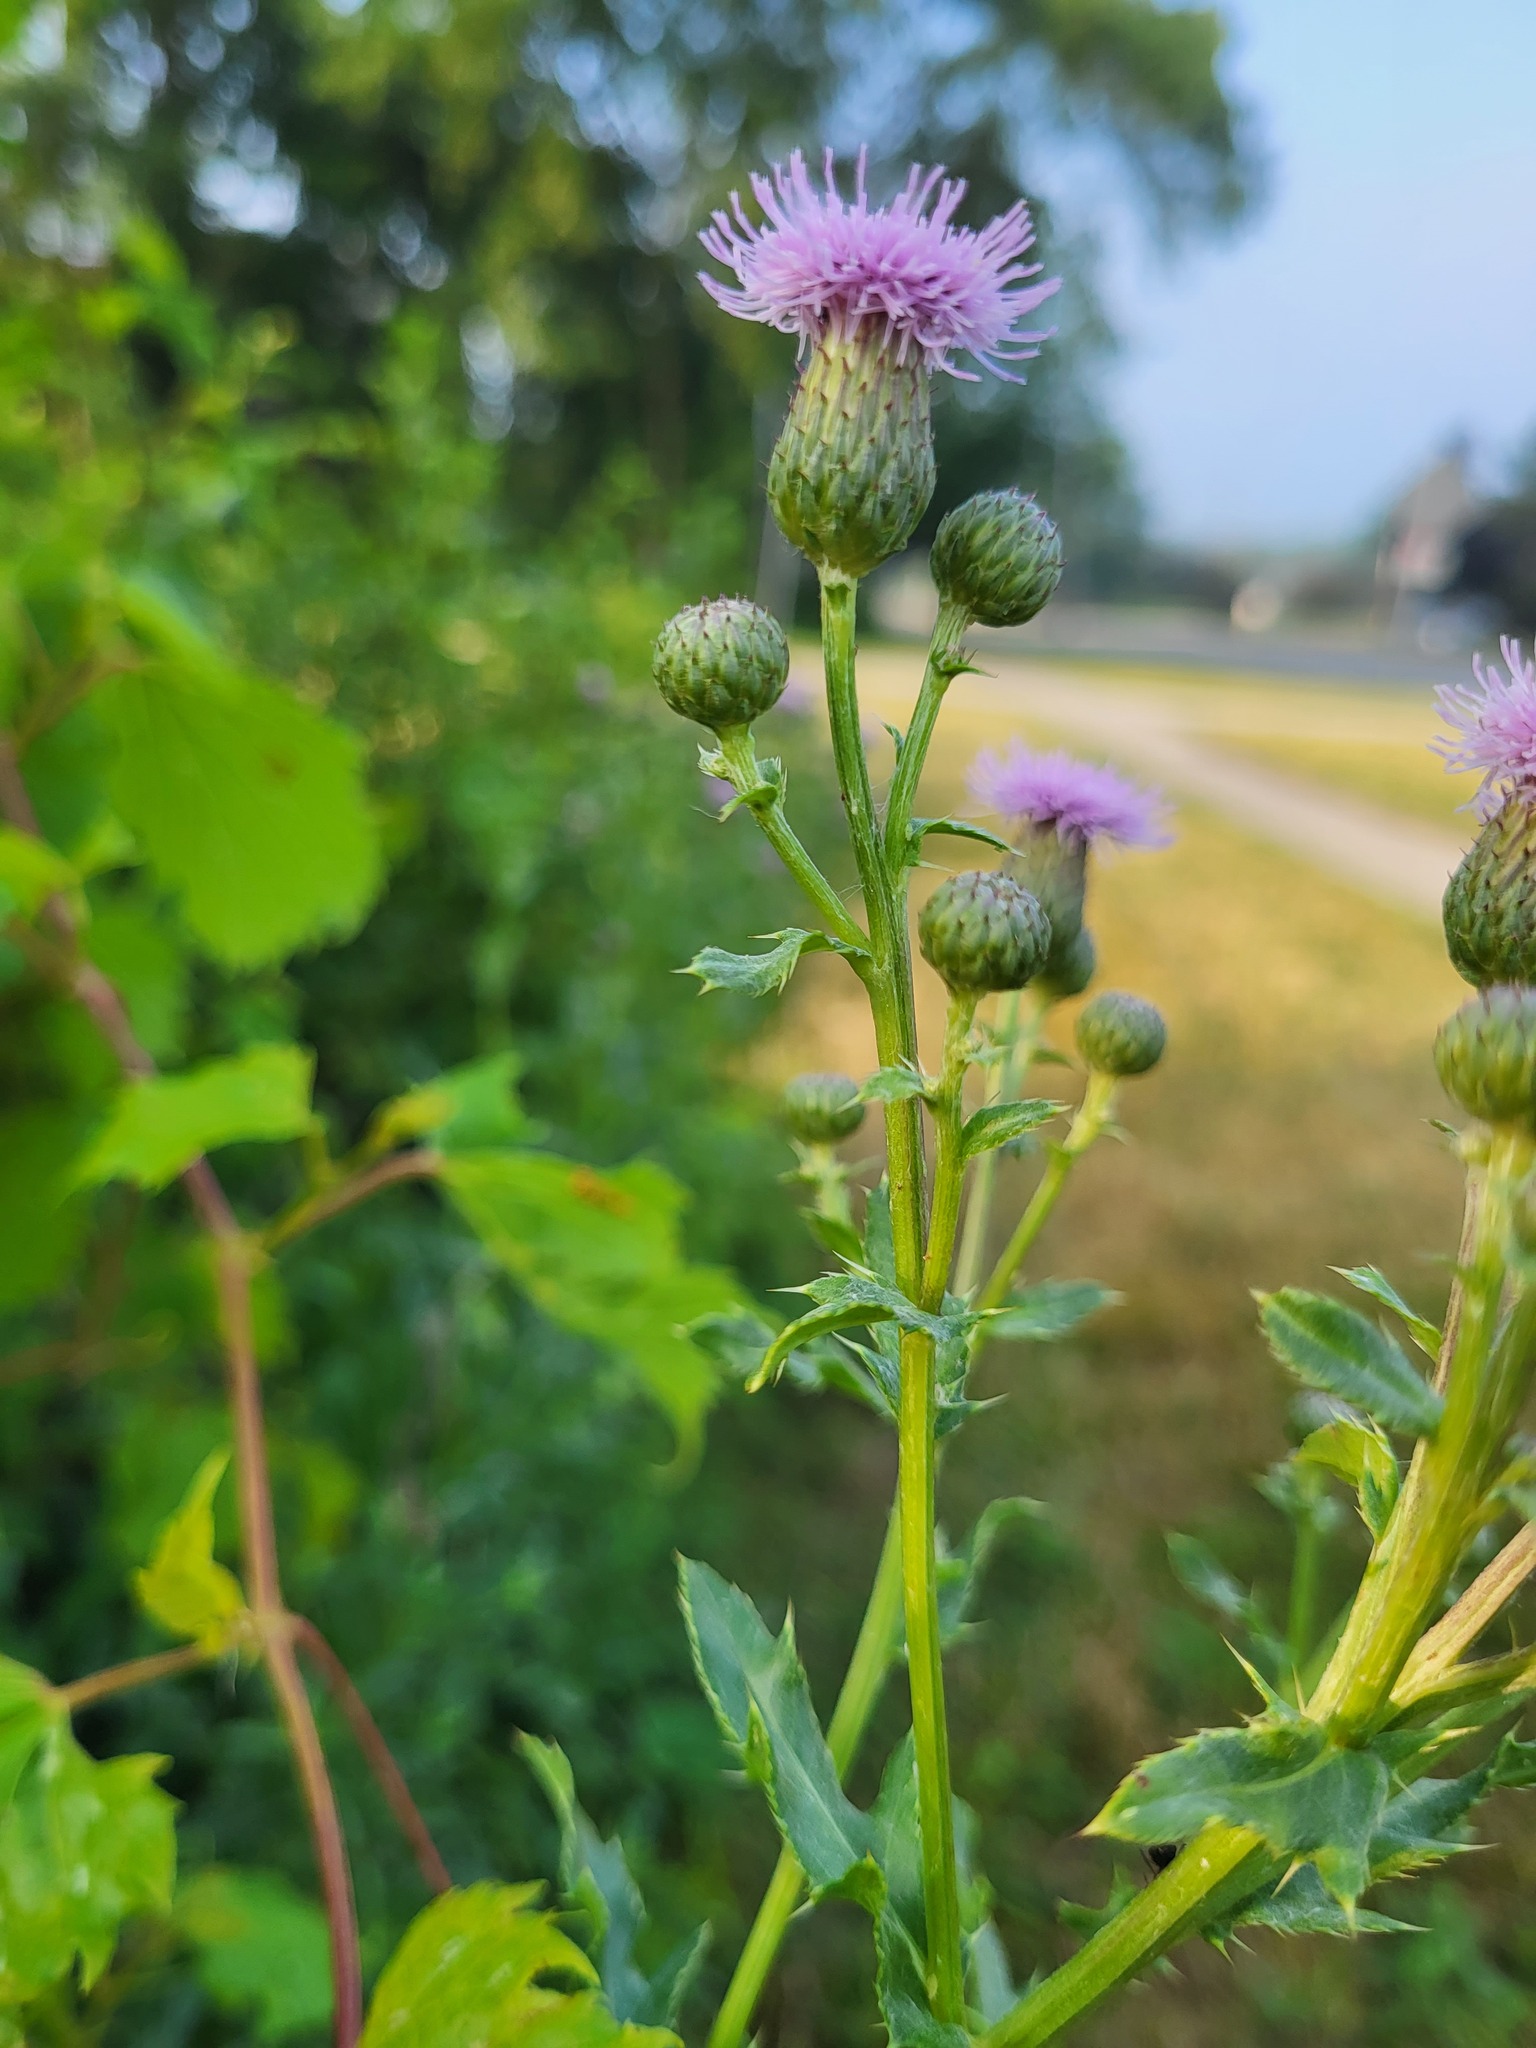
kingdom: Plantae
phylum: Tracheophyta
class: Magnoliopsida
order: Asterales
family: Asteraceae
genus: Cirsium
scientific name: Cirsium arvense
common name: Creeping thistle
